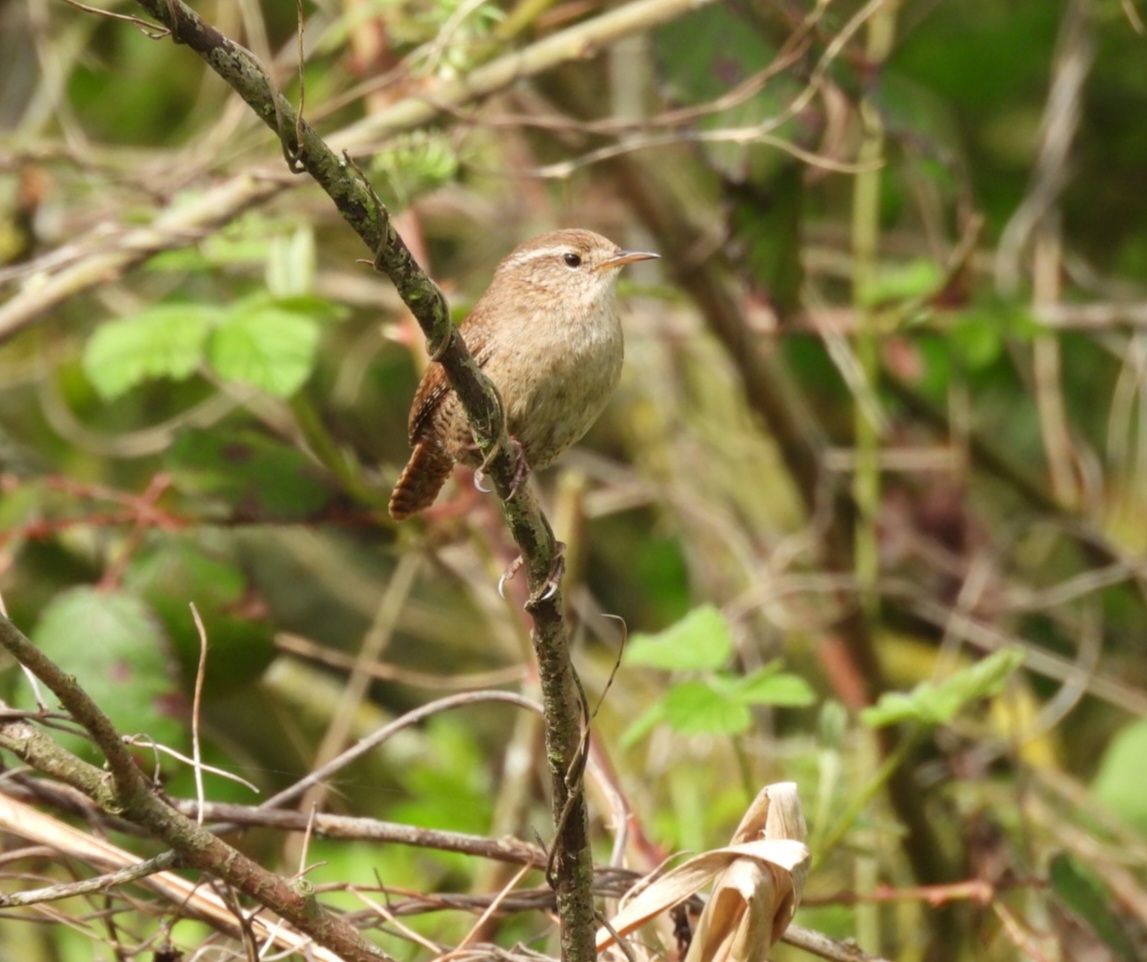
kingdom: Animalia
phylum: Chordata
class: Aves
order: Passeriformes
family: Troglodytidae
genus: Troglodytes
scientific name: Troglodytes troglodytes
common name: Eurasian wren
